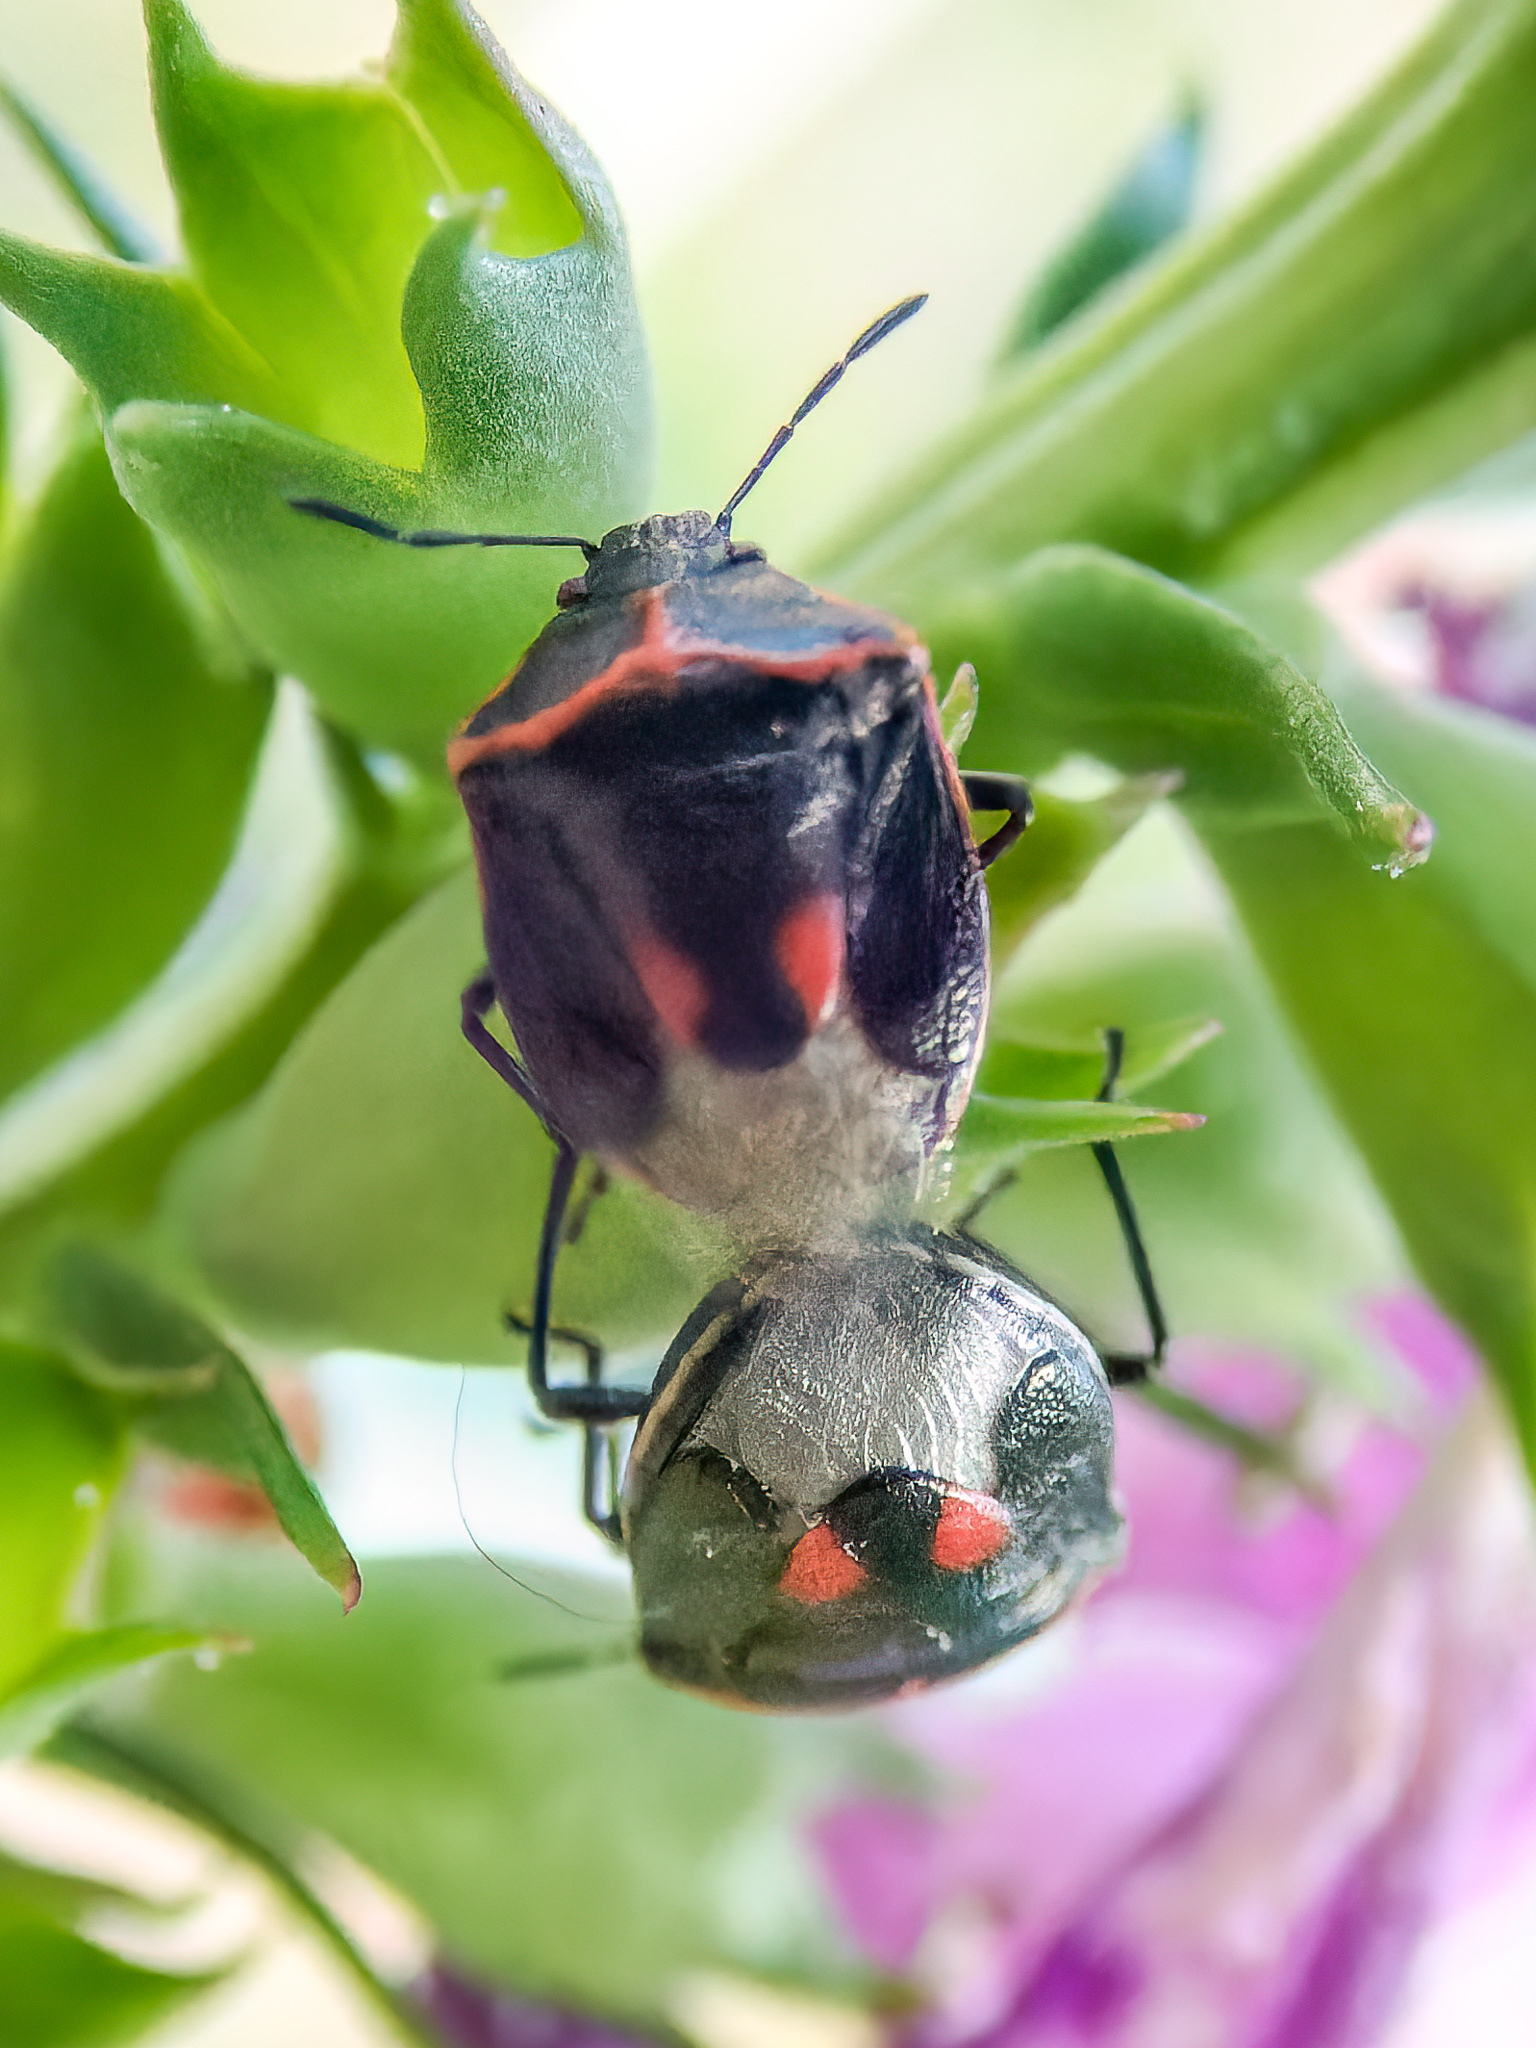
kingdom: Animalia
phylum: Arthropoda
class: Insecta
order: Hemiptera
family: Pentatomidae
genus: Cosmopepla
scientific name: Cosmopepla lintneriana
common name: Twice-stabbed stink bug
